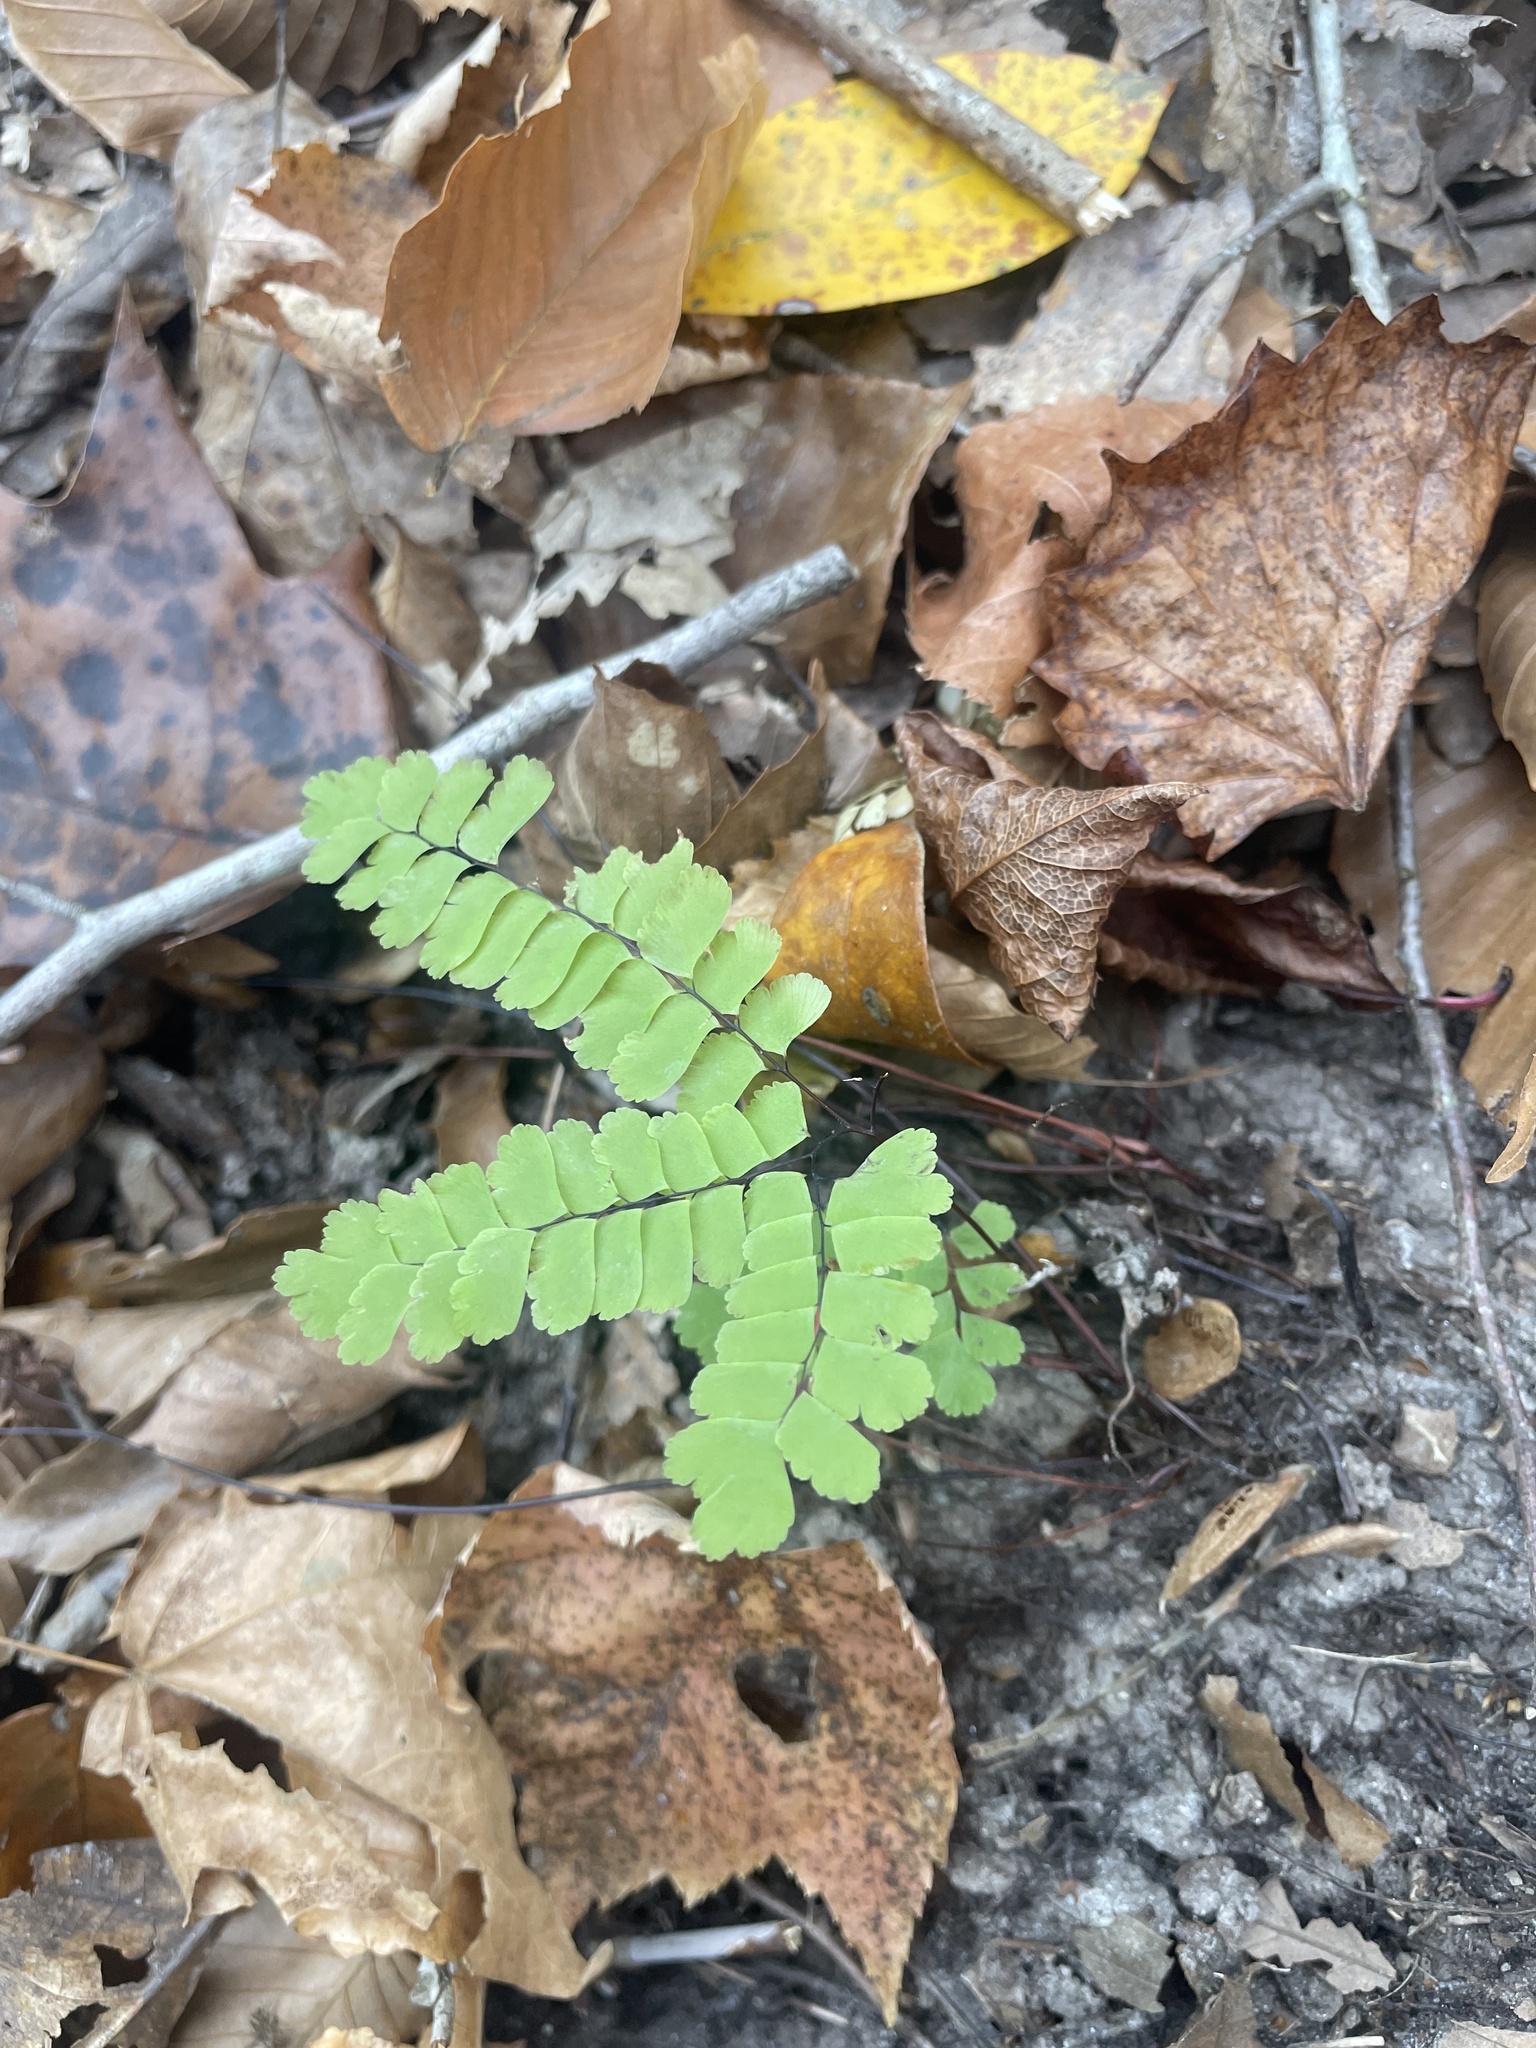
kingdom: Plantae
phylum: Tracheophyta
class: Polypodiopsida
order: Polypodiales
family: Pteridaceae
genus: Adiantum
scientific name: Adiantum pedatum
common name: Five-finger fern
